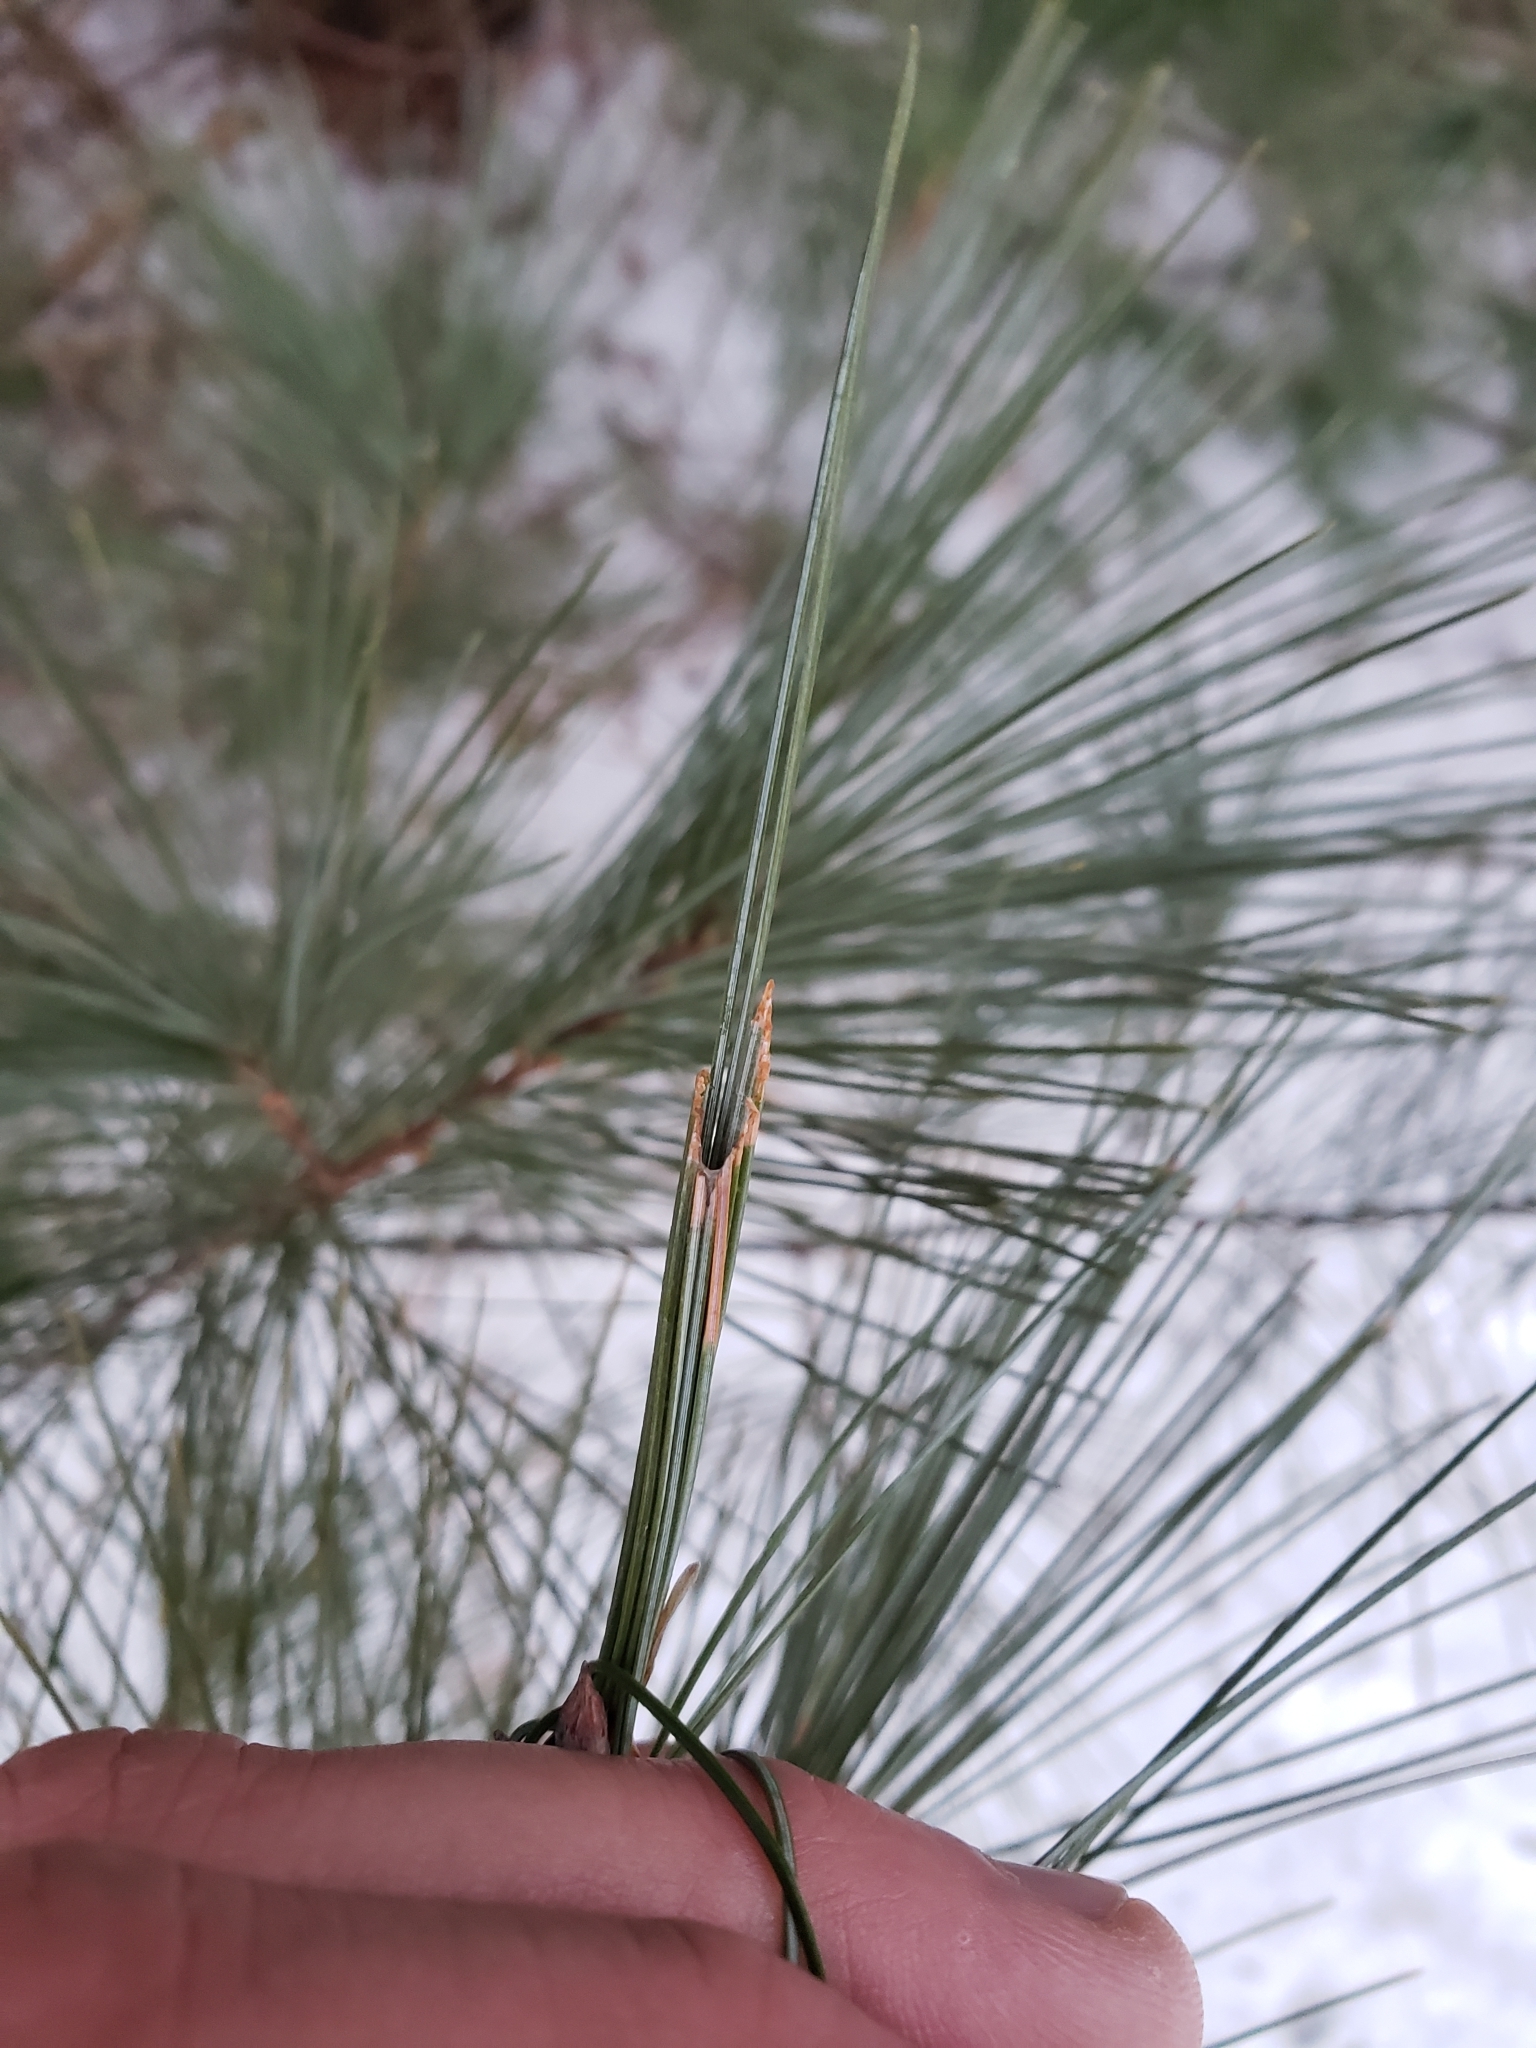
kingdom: Animalia
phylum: Arthropoda
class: Insecta
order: Lepidoptera
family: Tortricidae
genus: Argyrotaenia
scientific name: Argyrotaenia pinatubana
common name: Pine tube moth
